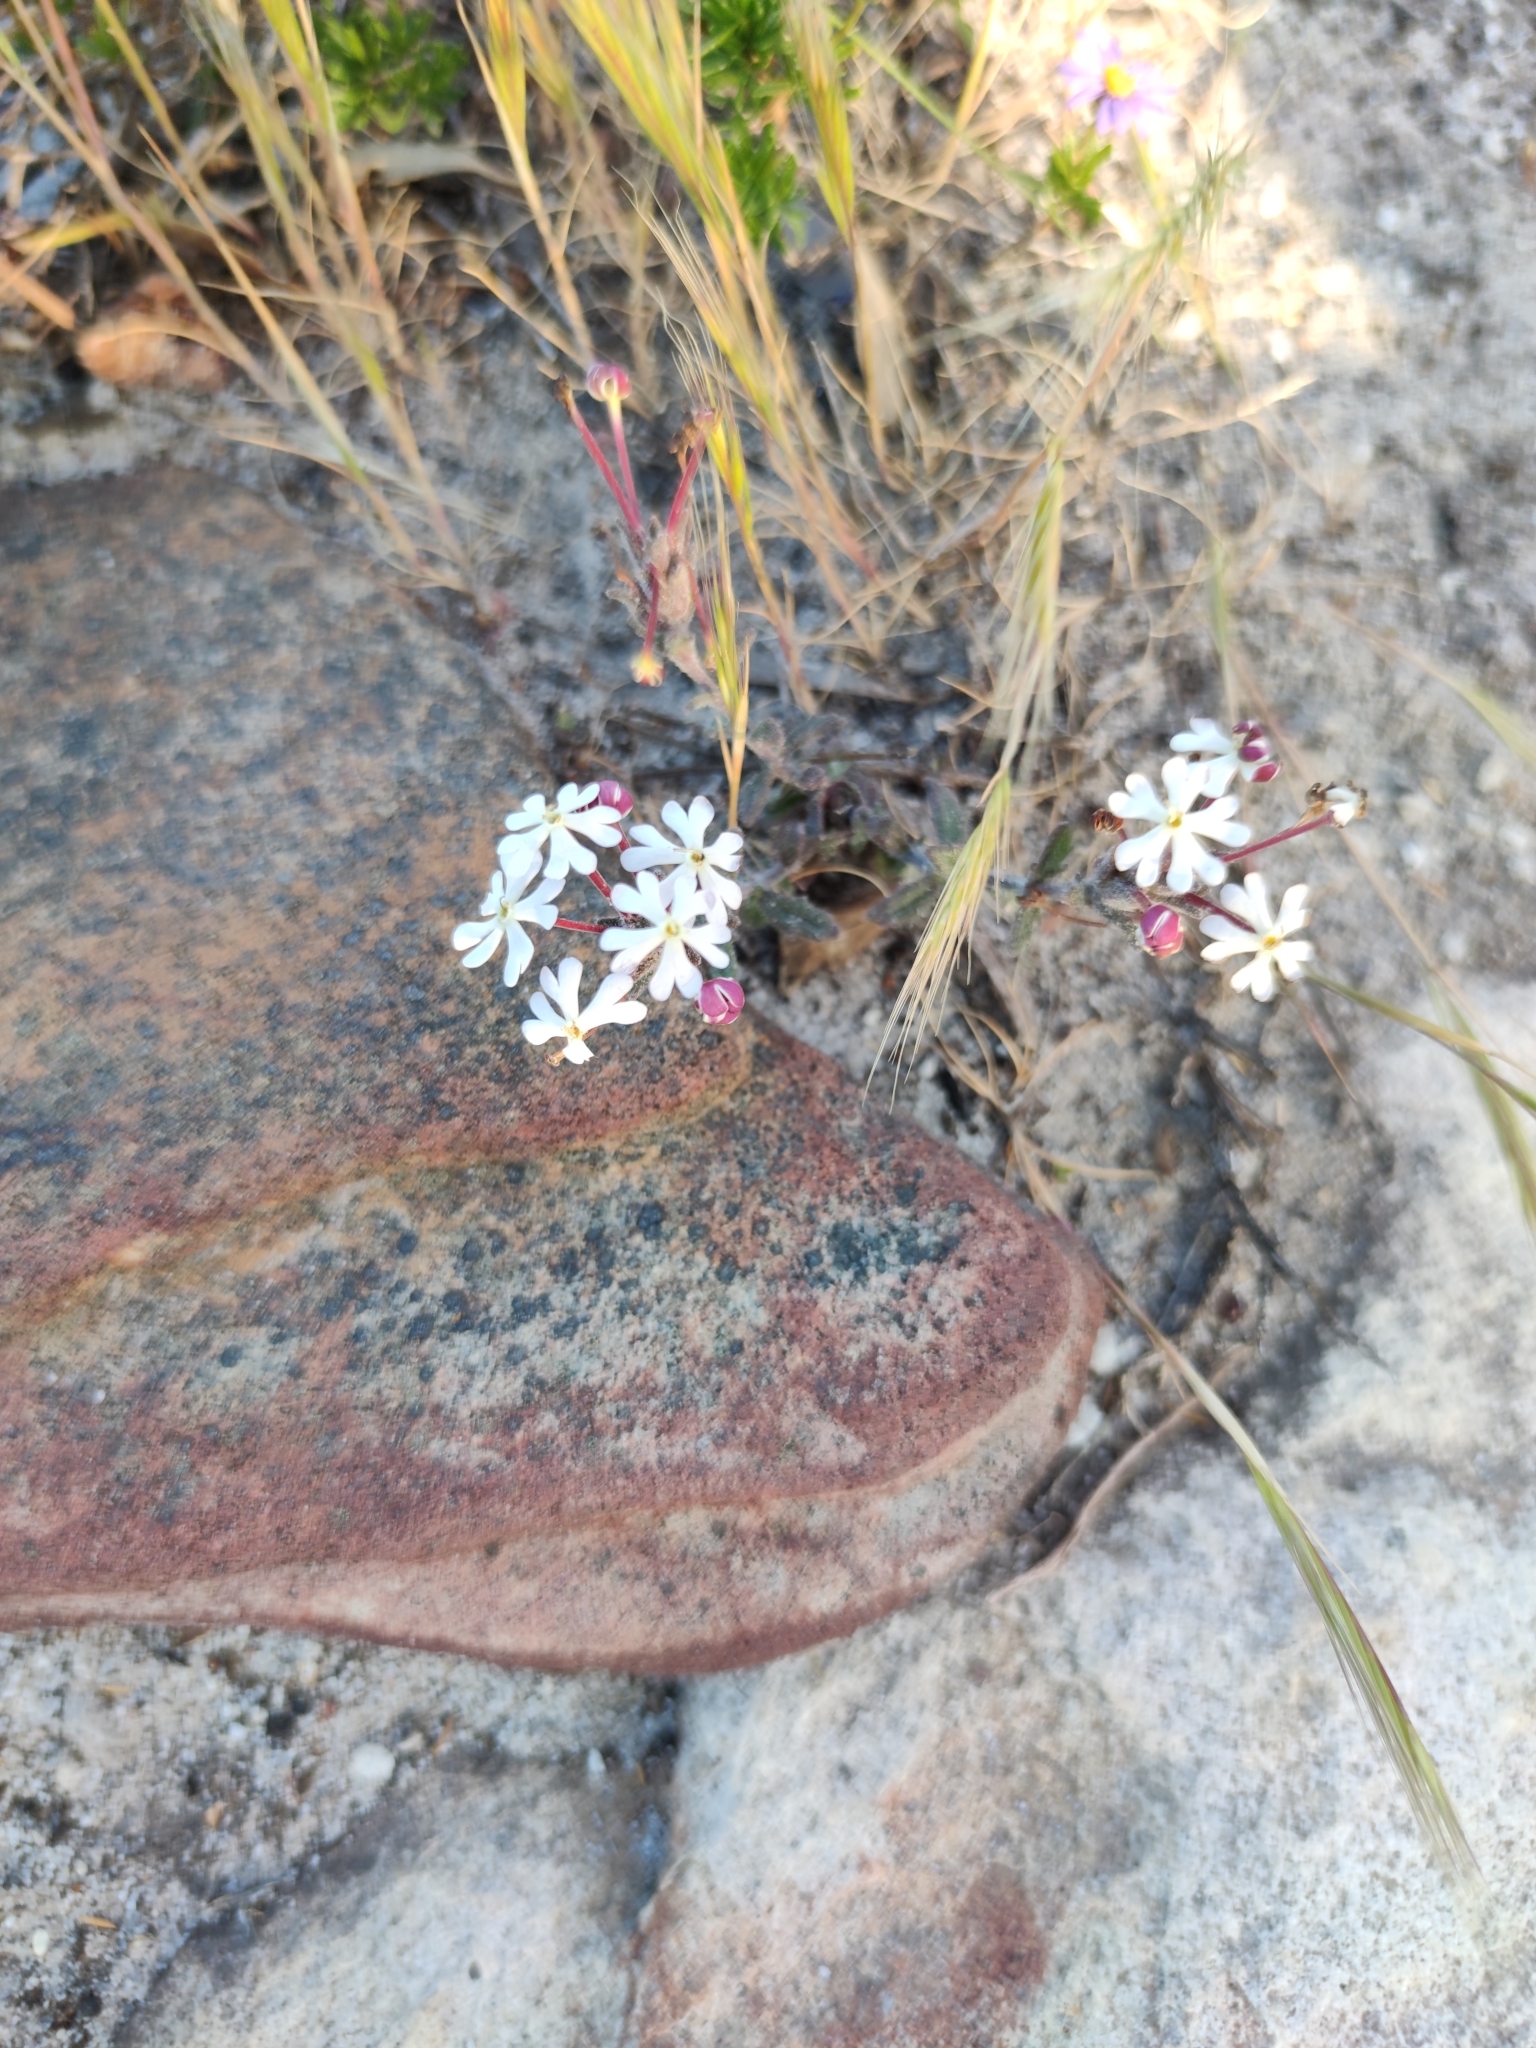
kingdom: Plantae
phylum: Tracheophyta
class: Magnoliopsida
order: Lamiales
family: Scrophulariaceae
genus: Zaluzianskya
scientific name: Zaluzianskya capensis
